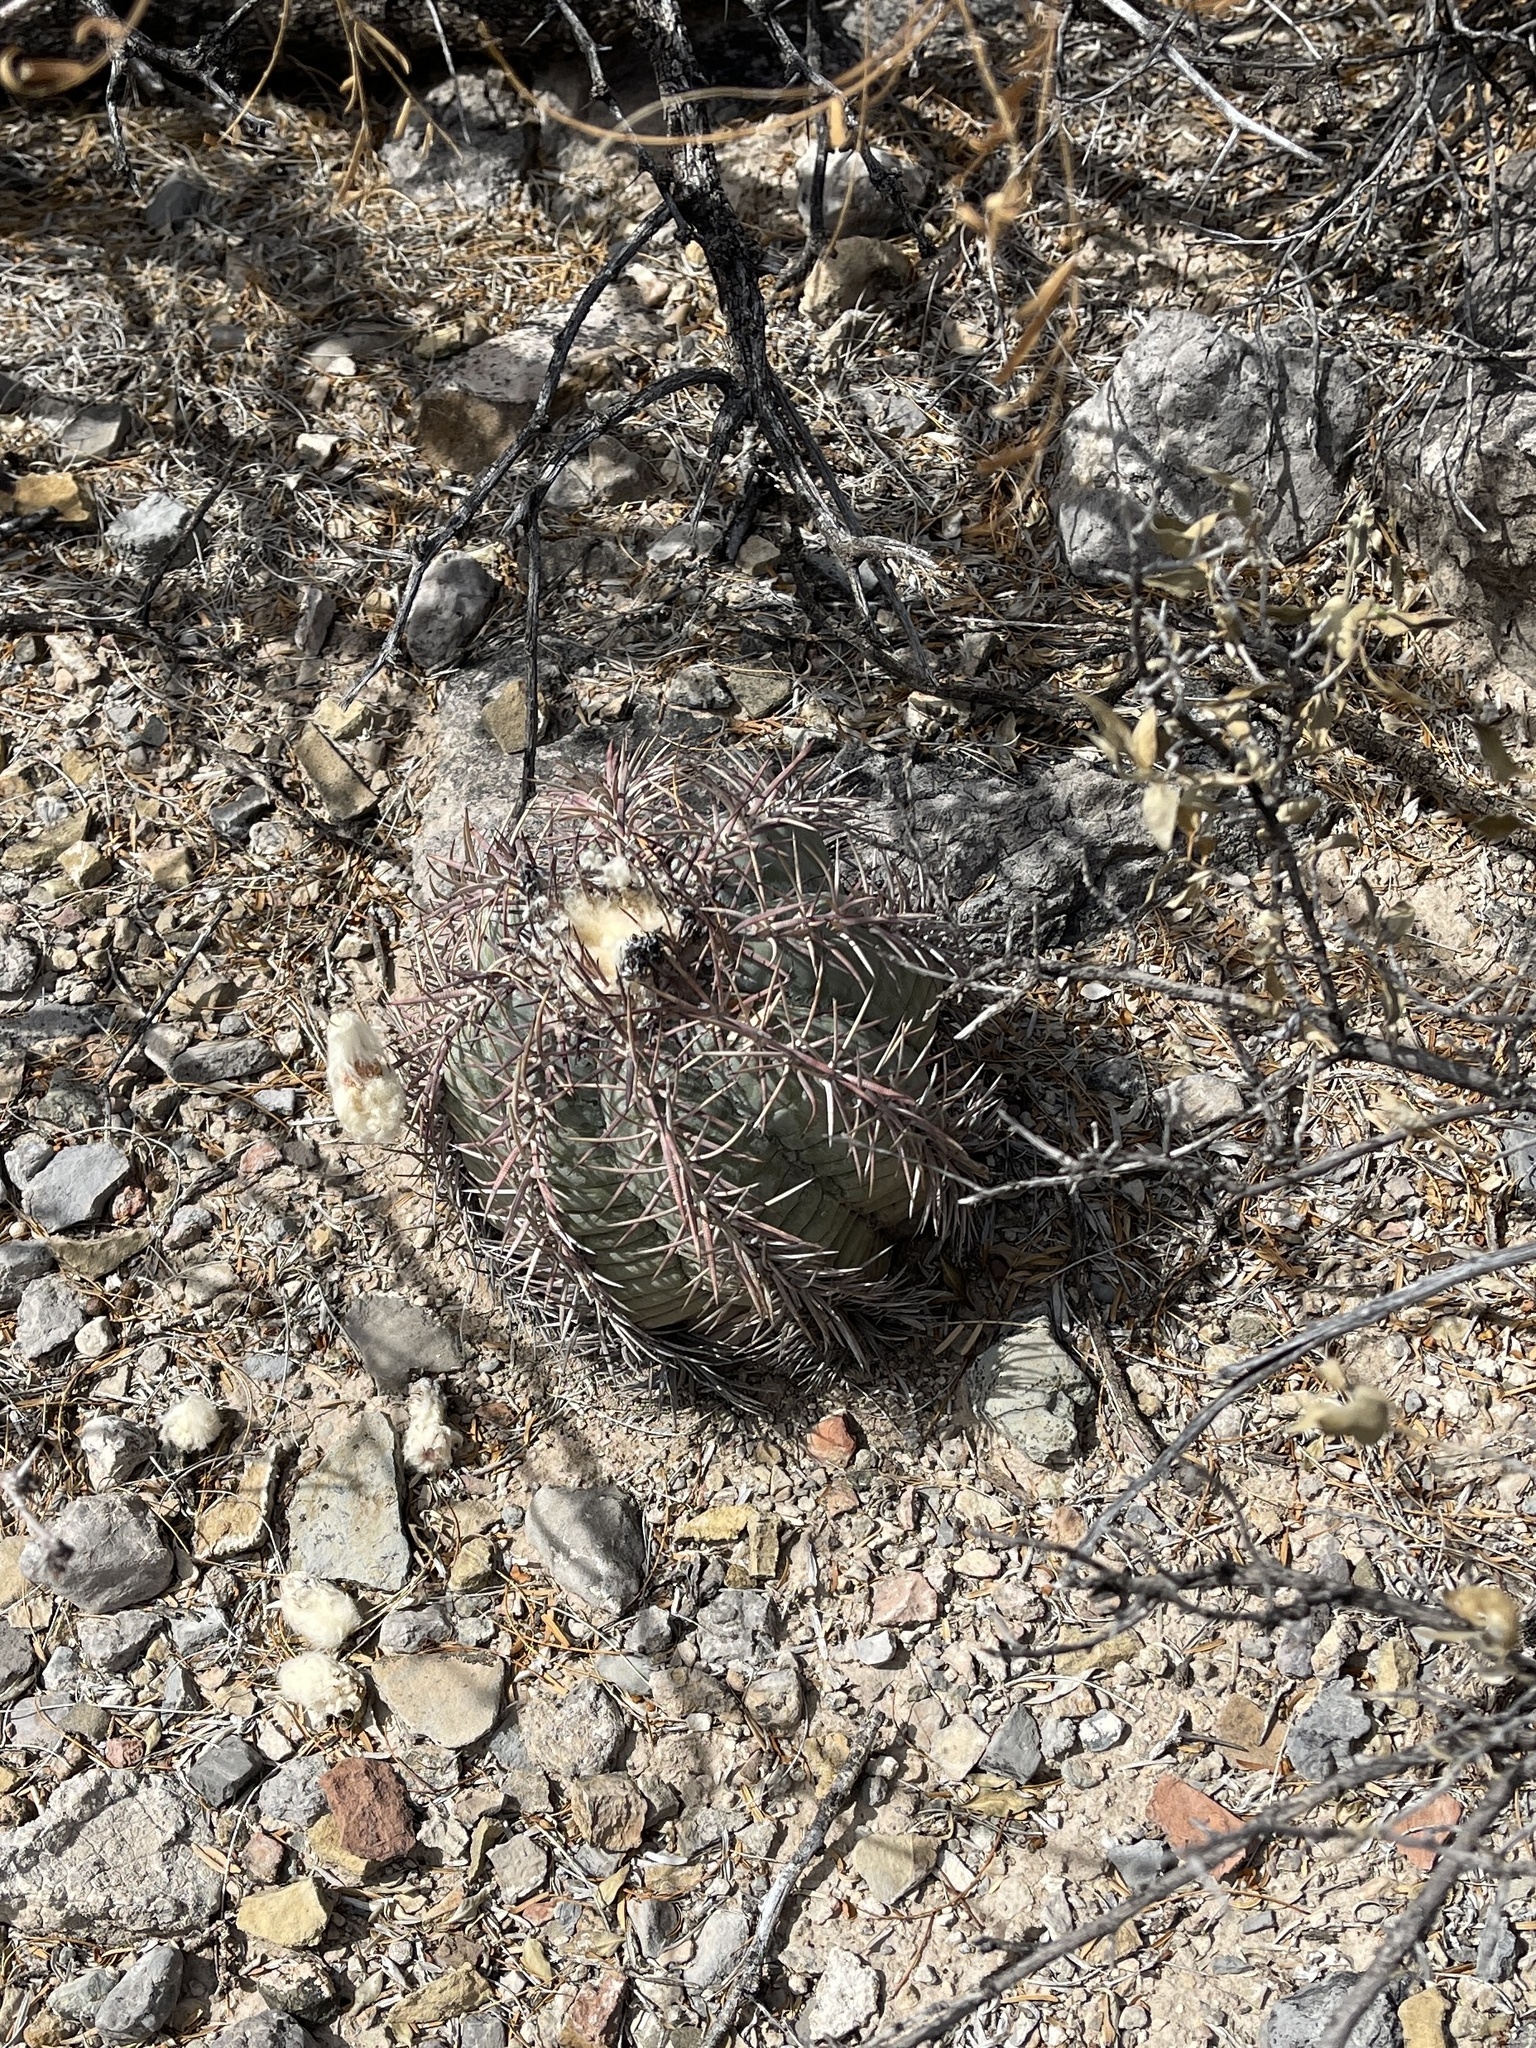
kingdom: Plantae
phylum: Tracheophyta
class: Magnoliopsida
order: Caryophyllales
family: Cactaceae
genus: Echinocactus
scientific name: Echinocactus horizonthalonius
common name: Devilshead
